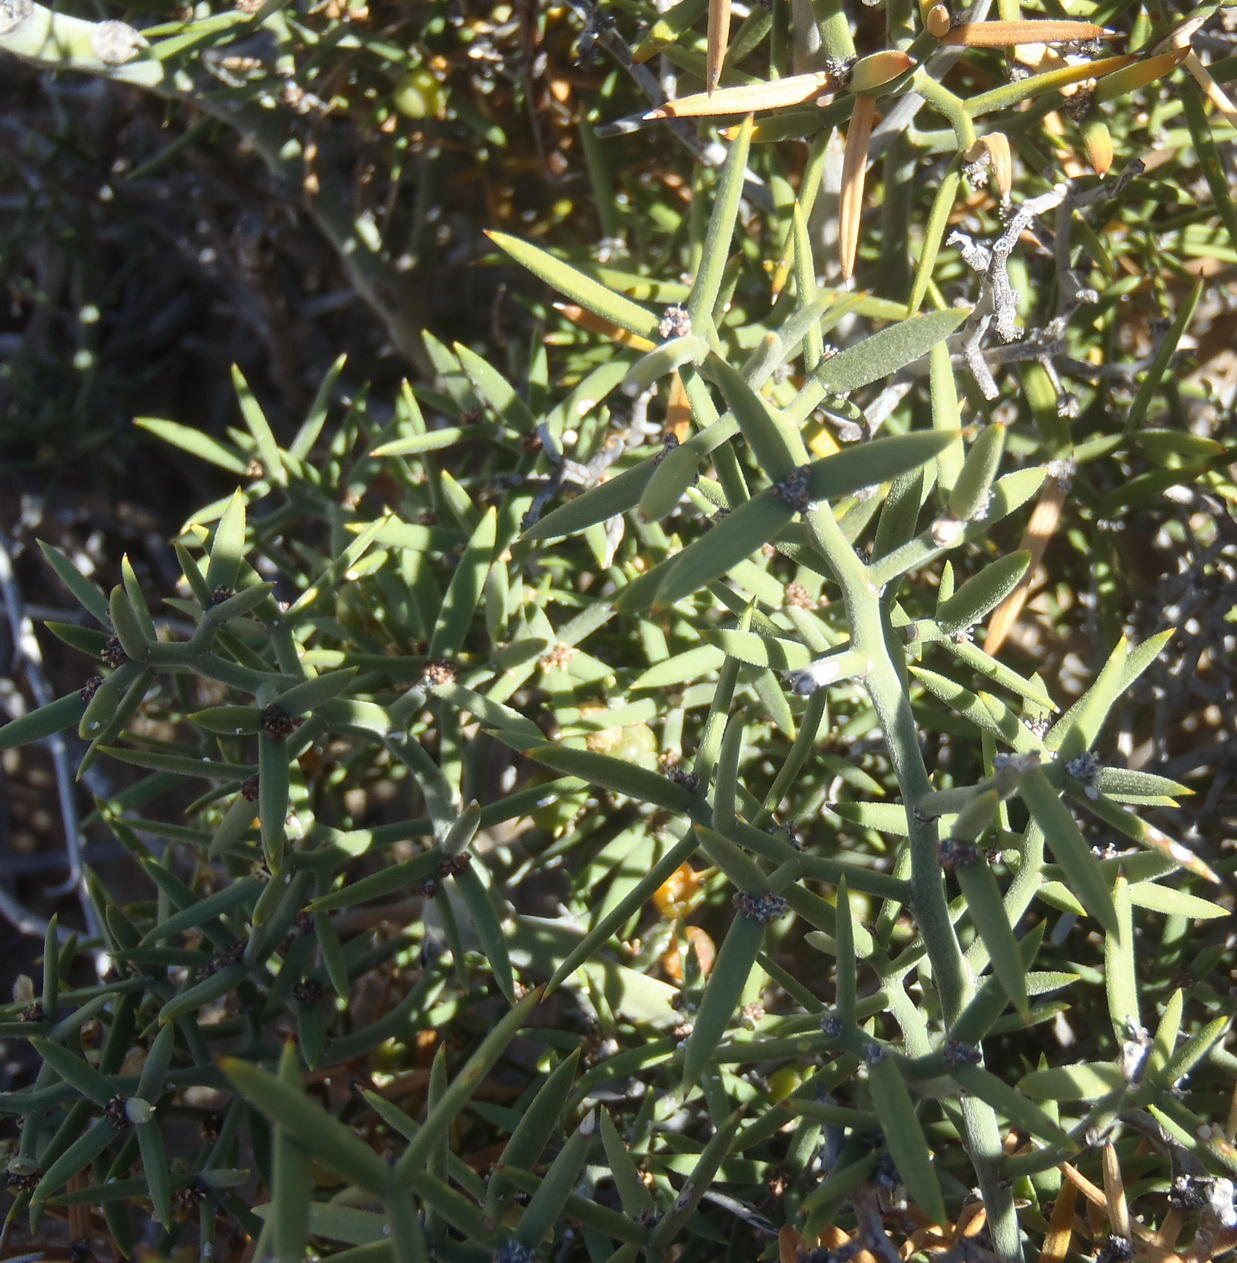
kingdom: Plantae
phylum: Tracheophyta
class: Liliopsida
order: Asparagales
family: Asparagaceae
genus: Asparagus
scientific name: Asparagus striatus
